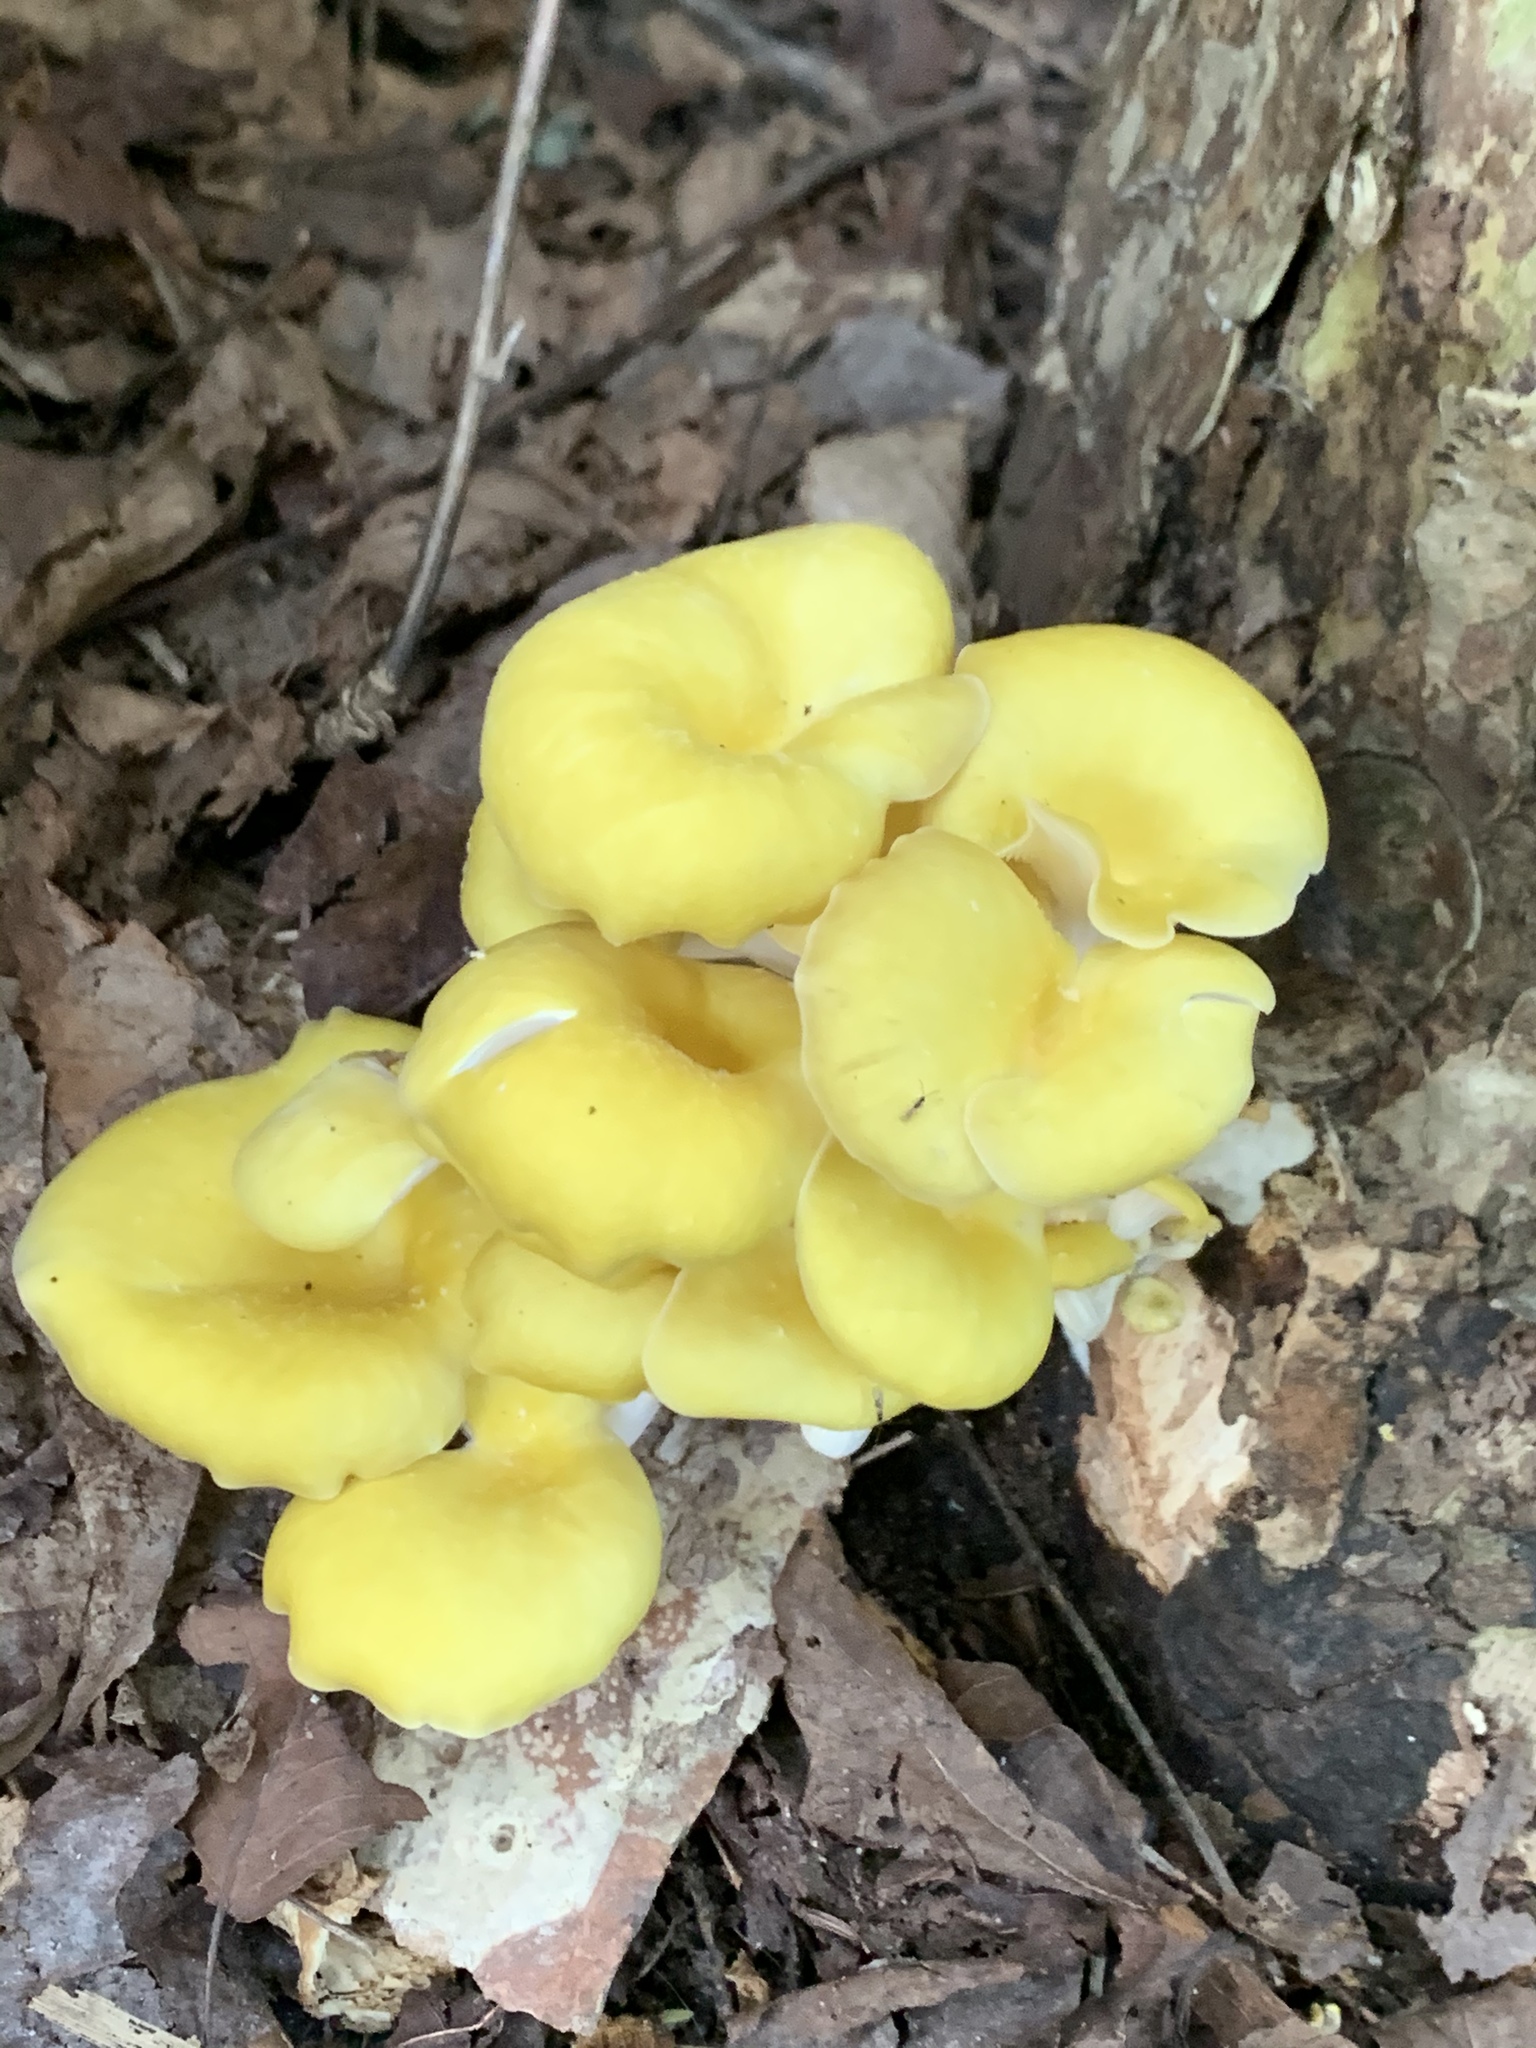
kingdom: Fungi
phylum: Basidiomycota
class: Agaricomycetes
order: Agaricales
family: Pleurotaceae
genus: Pleurotus
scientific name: Pleurotus citrinopileatus
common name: Golden oyster mushroom
